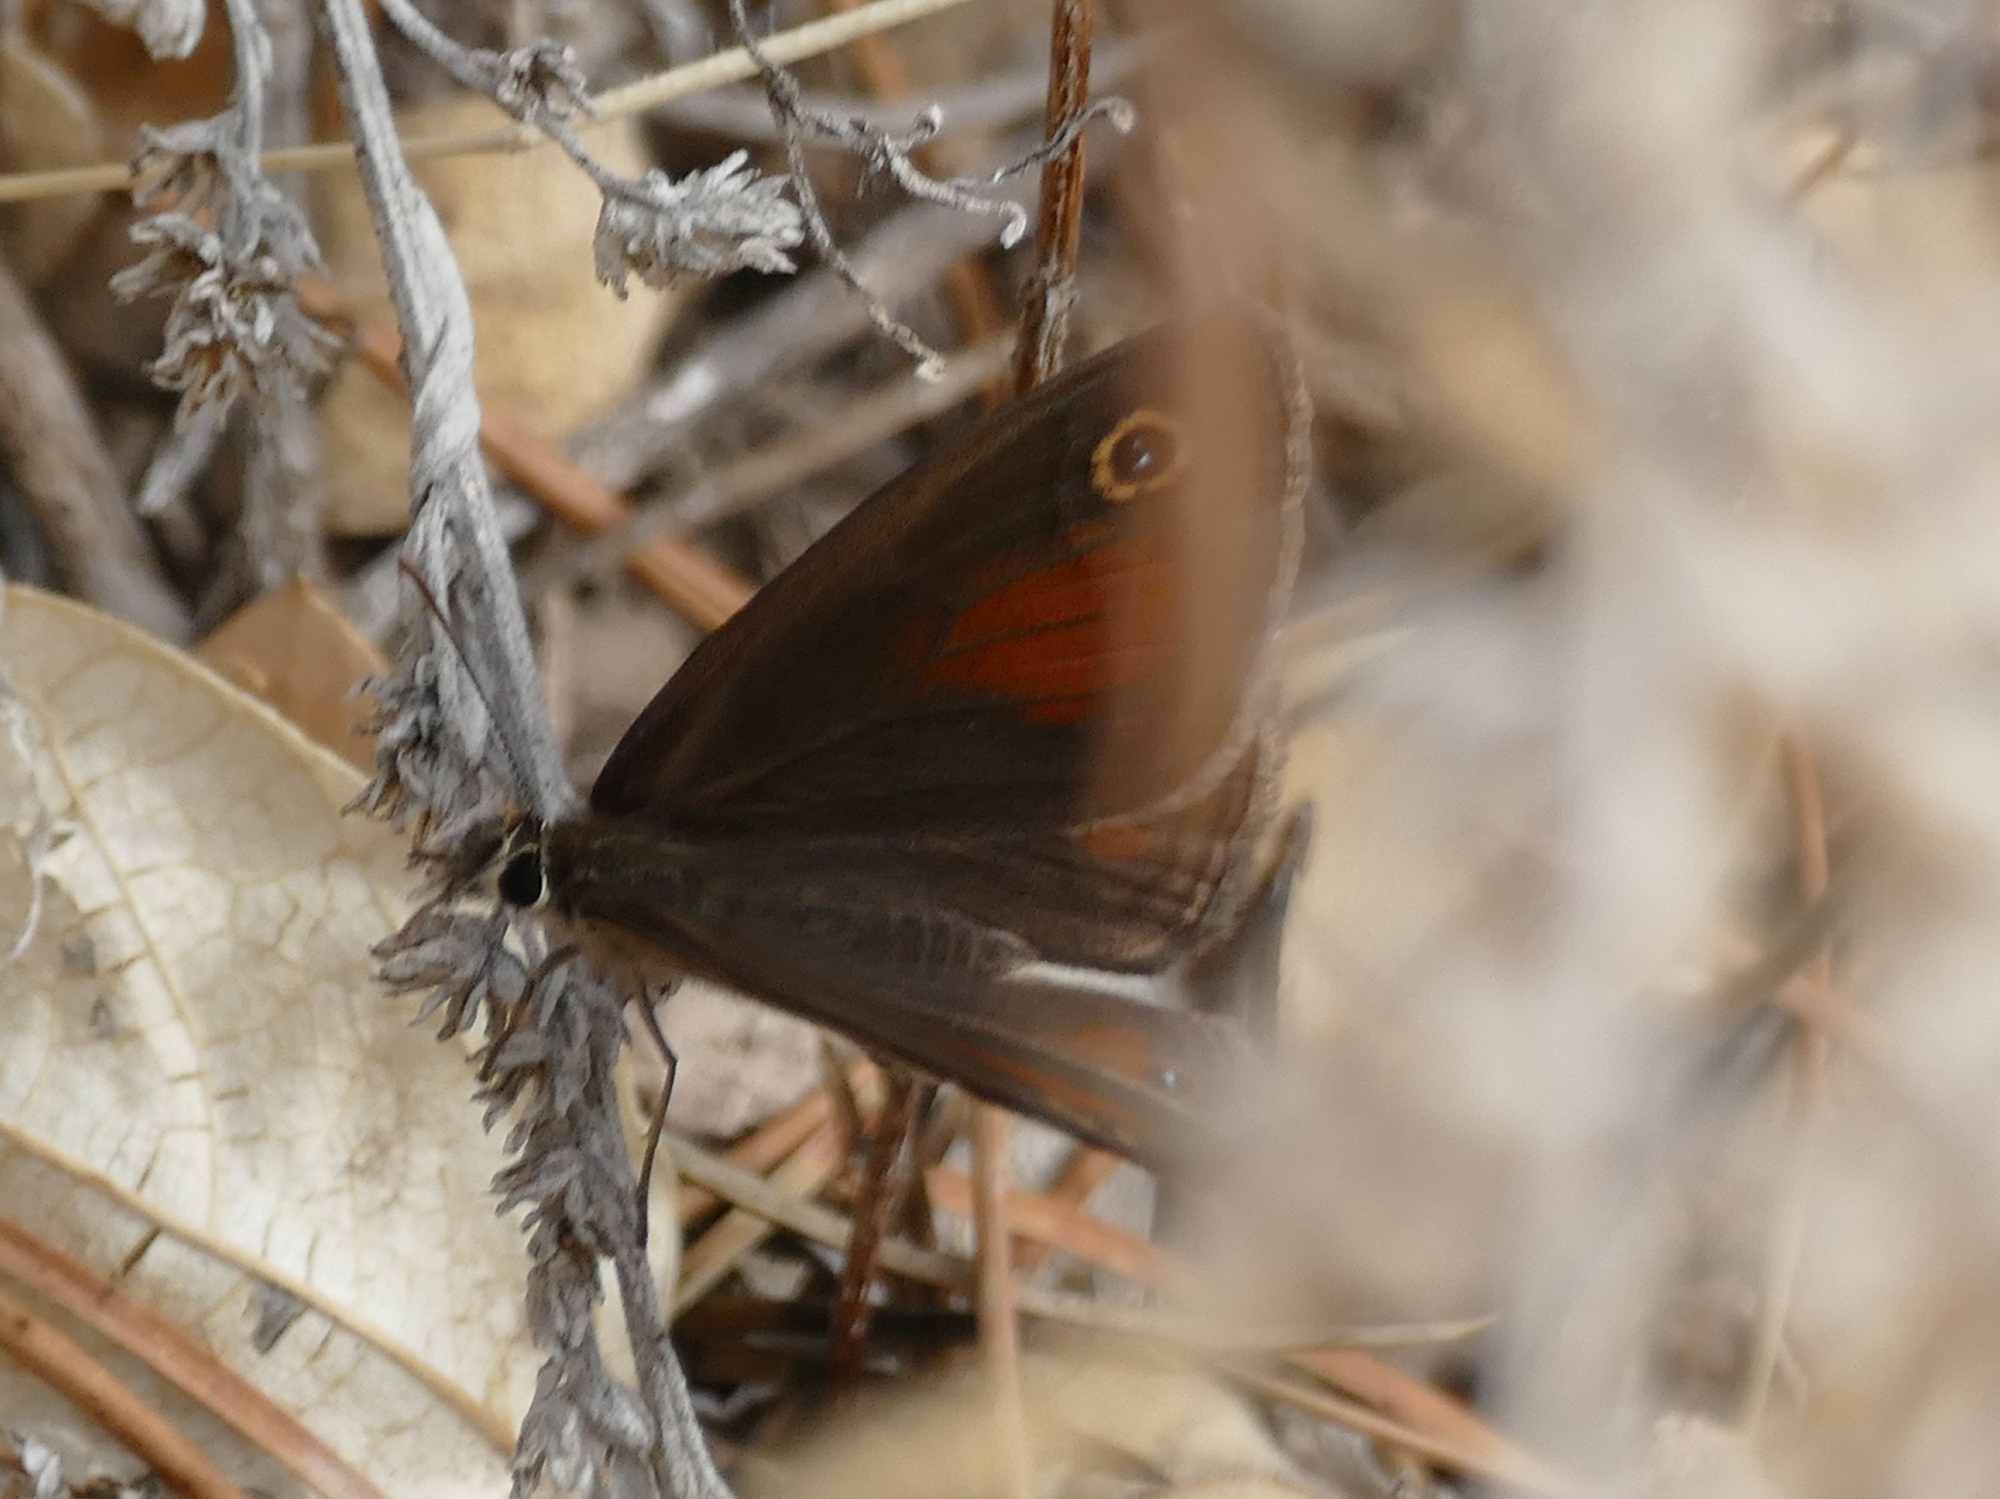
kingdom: Animalia
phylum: Arthropoda
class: Insecta
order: Lepidoptera
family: Nymphalidae
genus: Euptychia
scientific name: Euptychia
